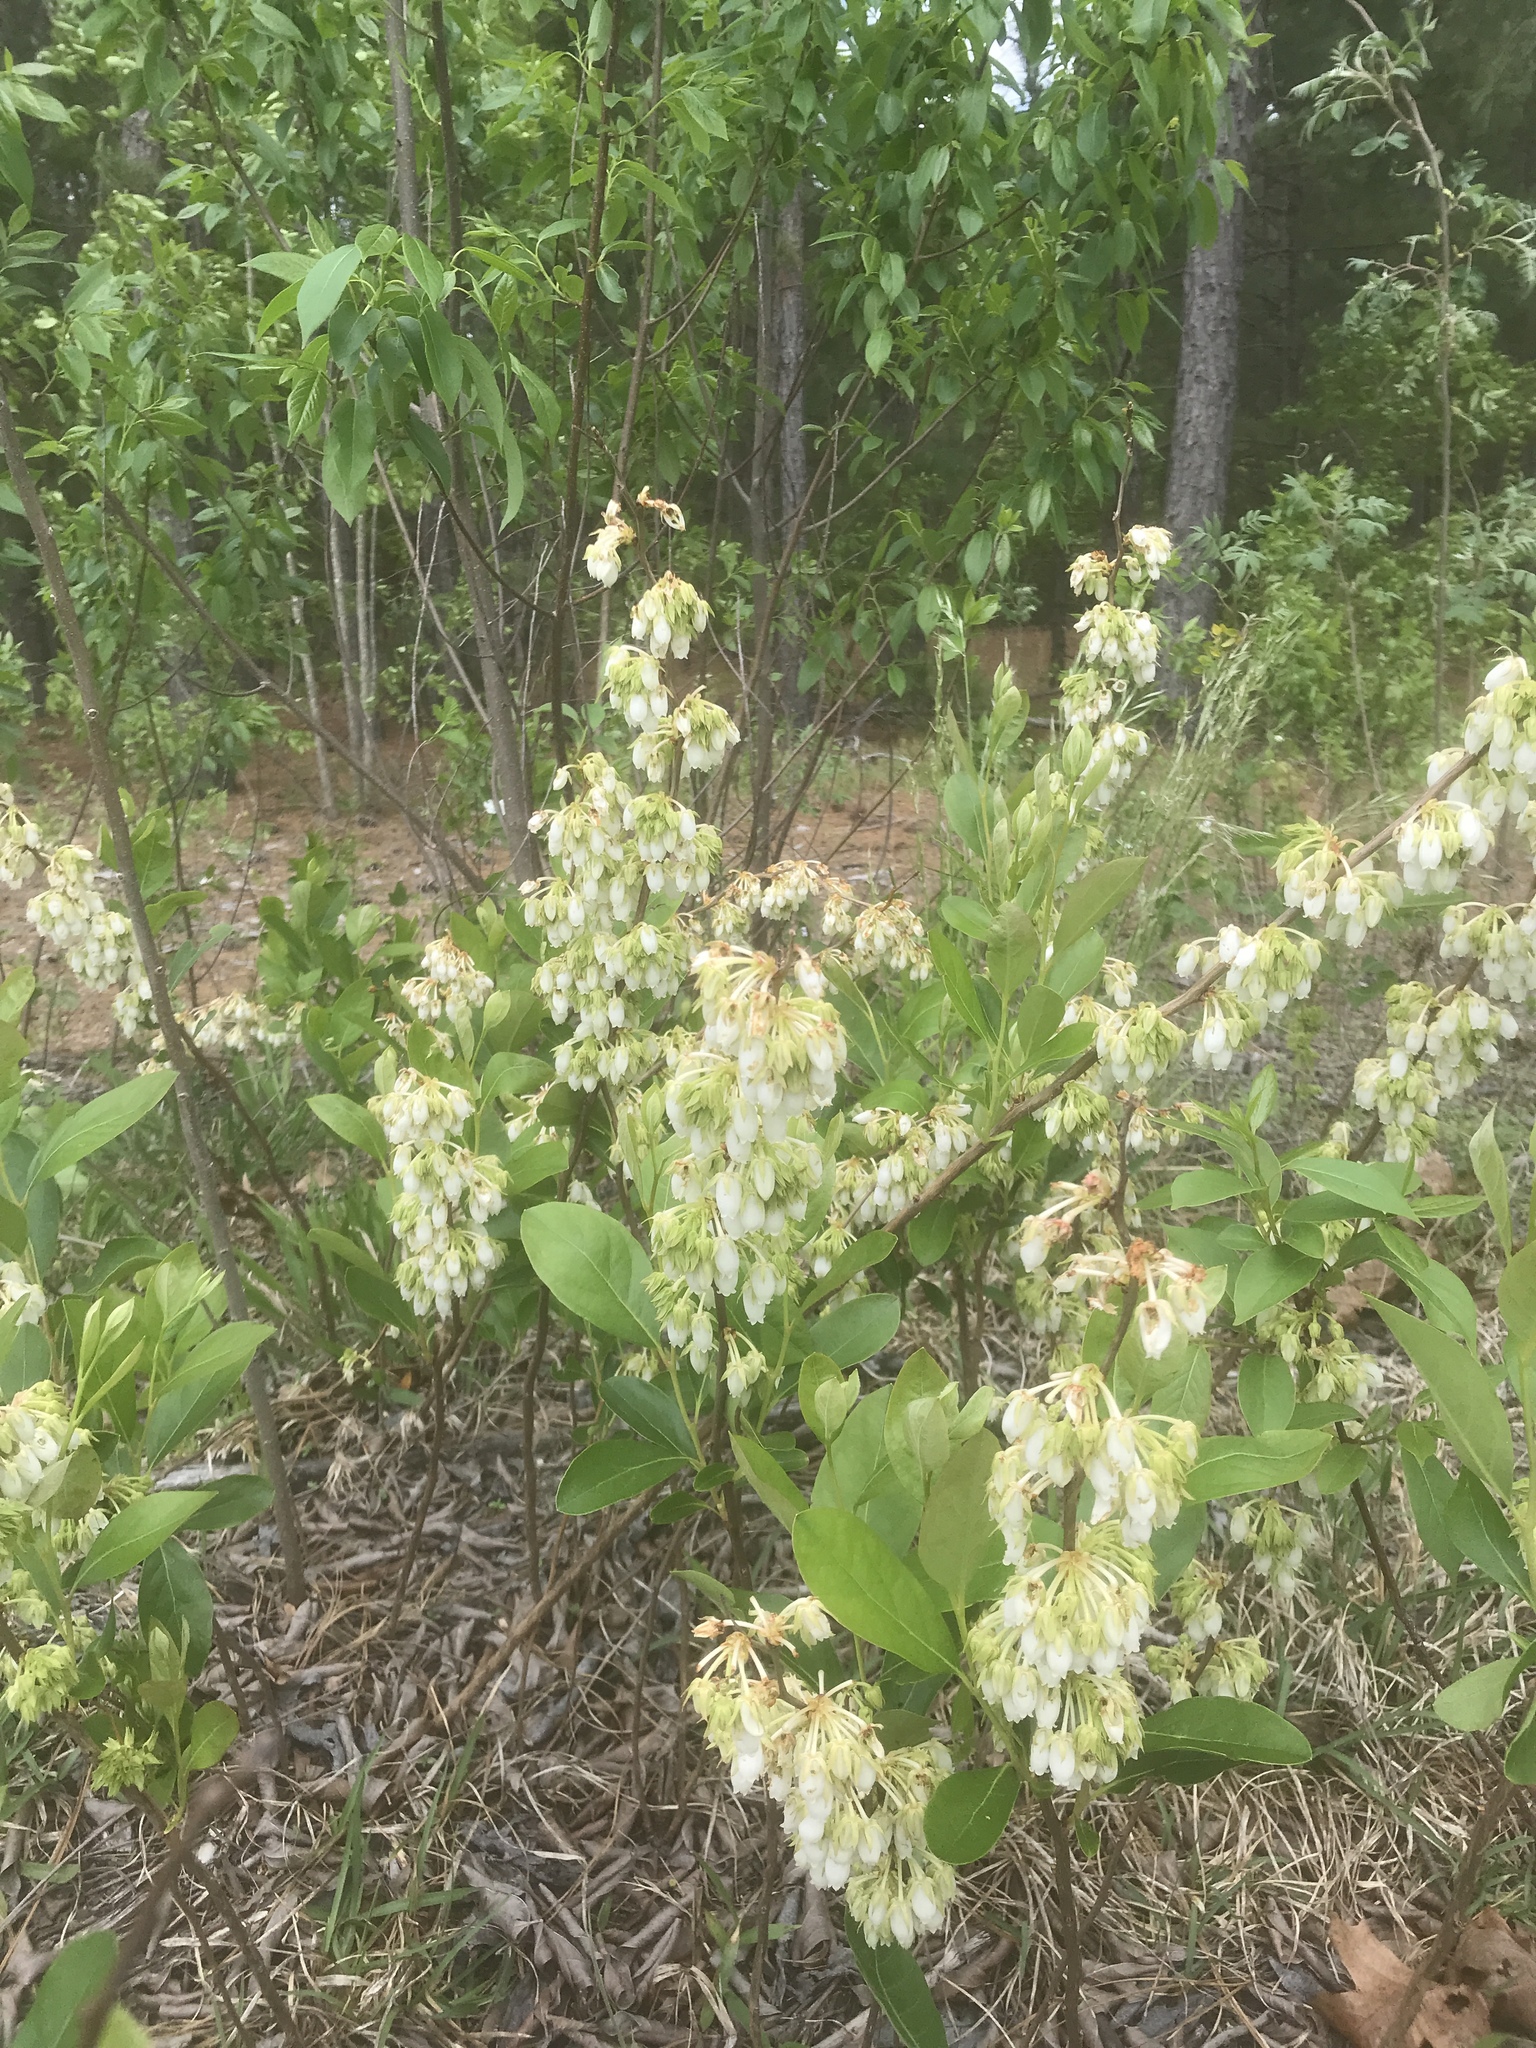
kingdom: Plantae
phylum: Tracheophyta
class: Magnoliopsida
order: Ericales
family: Ericaceae
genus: Lyonia
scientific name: Lyonia mariana
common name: Staggerbush
